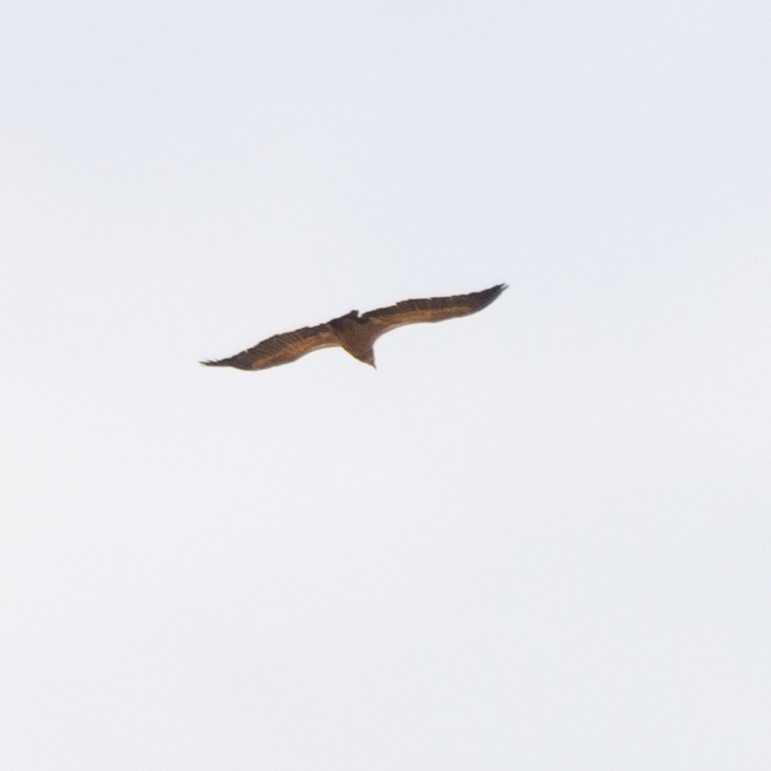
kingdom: Animalia
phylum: Chordata
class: Aves
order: Accipitriformes
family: Accipitridae
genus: Gyps
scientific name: Gyps fulvus
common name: Griffon vulture
